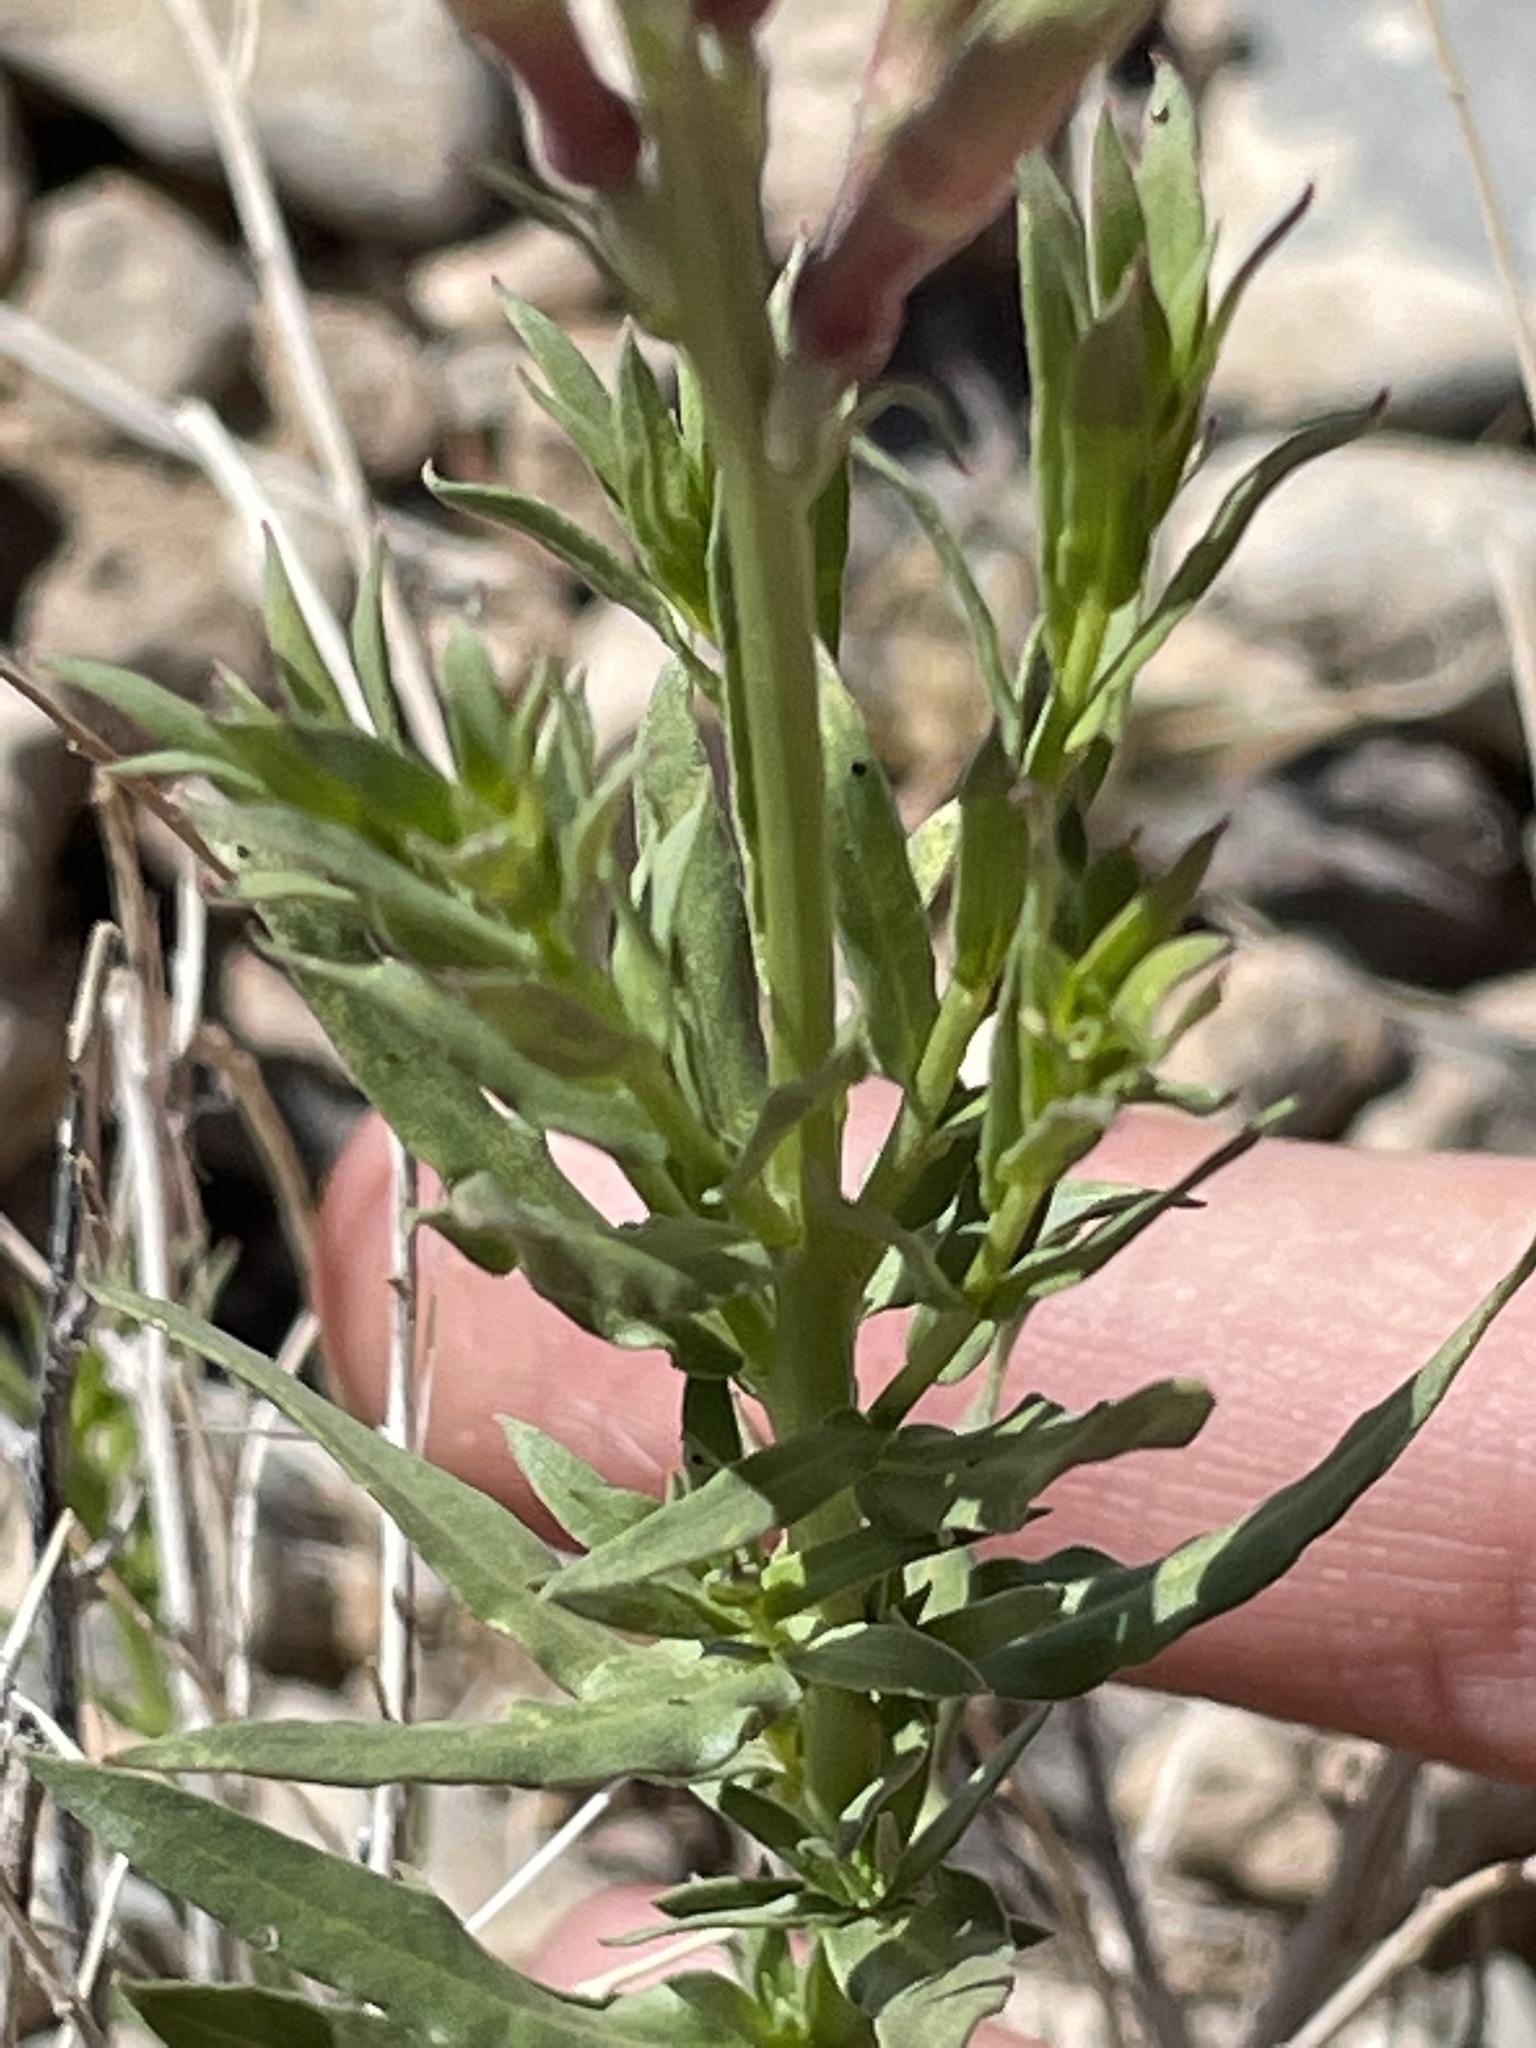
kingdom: Plantae
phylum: Tracheophyta
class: Magnoliopsida
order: Myrtales
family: Onagraceae
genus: Oenothera
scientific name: Oenothera suffrutescens
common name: Scarlet beeblossom
